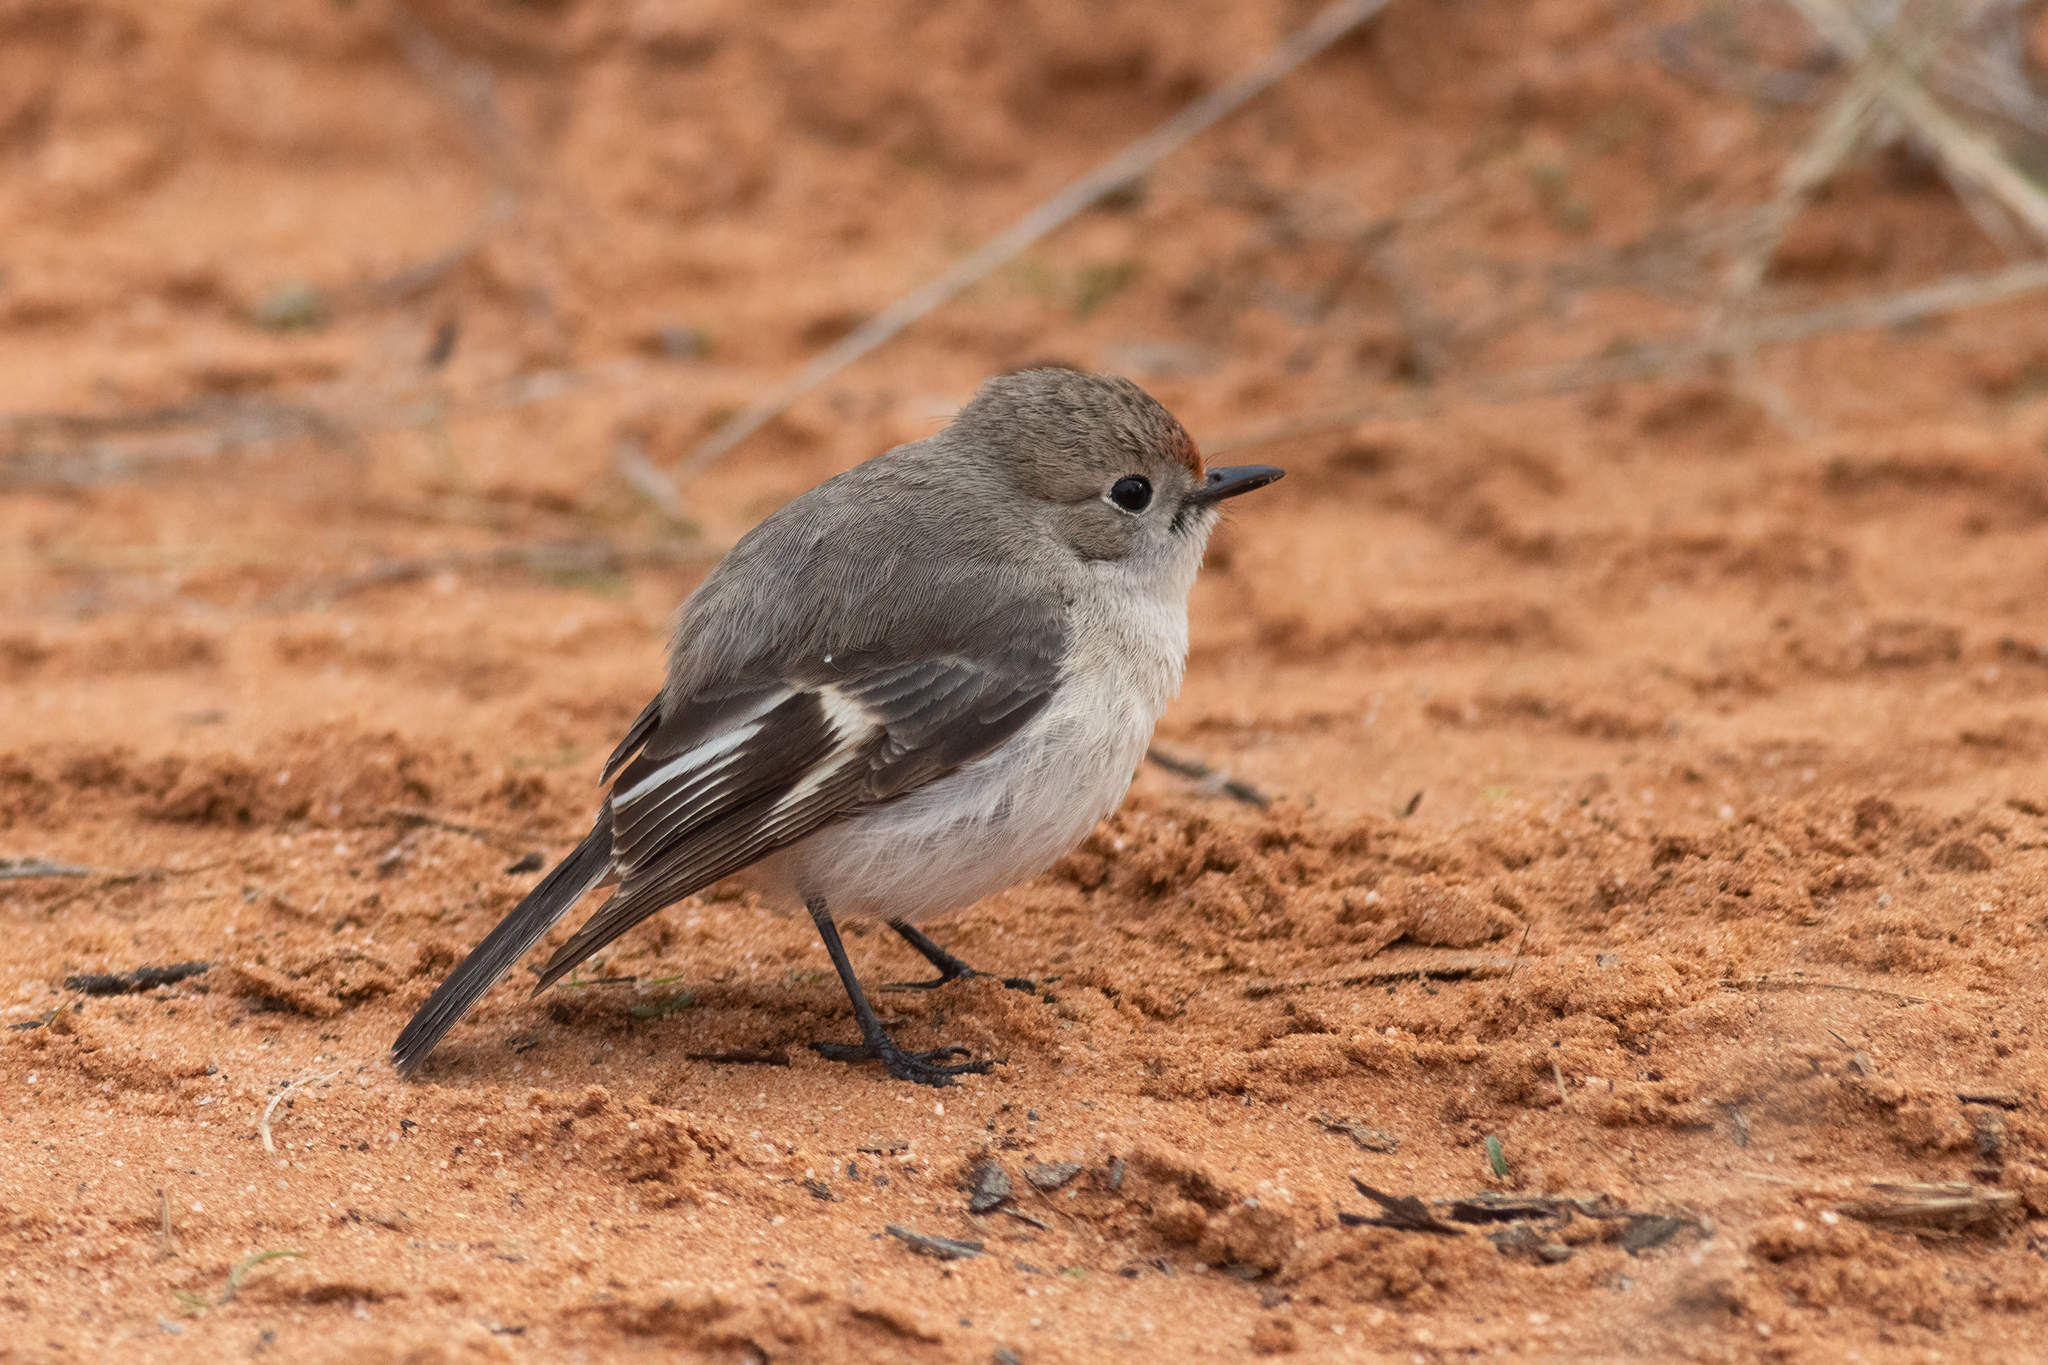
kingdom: Animalia
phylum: Chordata
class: Aves
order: Passeriformes
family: Petroicidae
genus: Petroica
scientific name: Petroica goodenovii
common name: Red-capped robin
